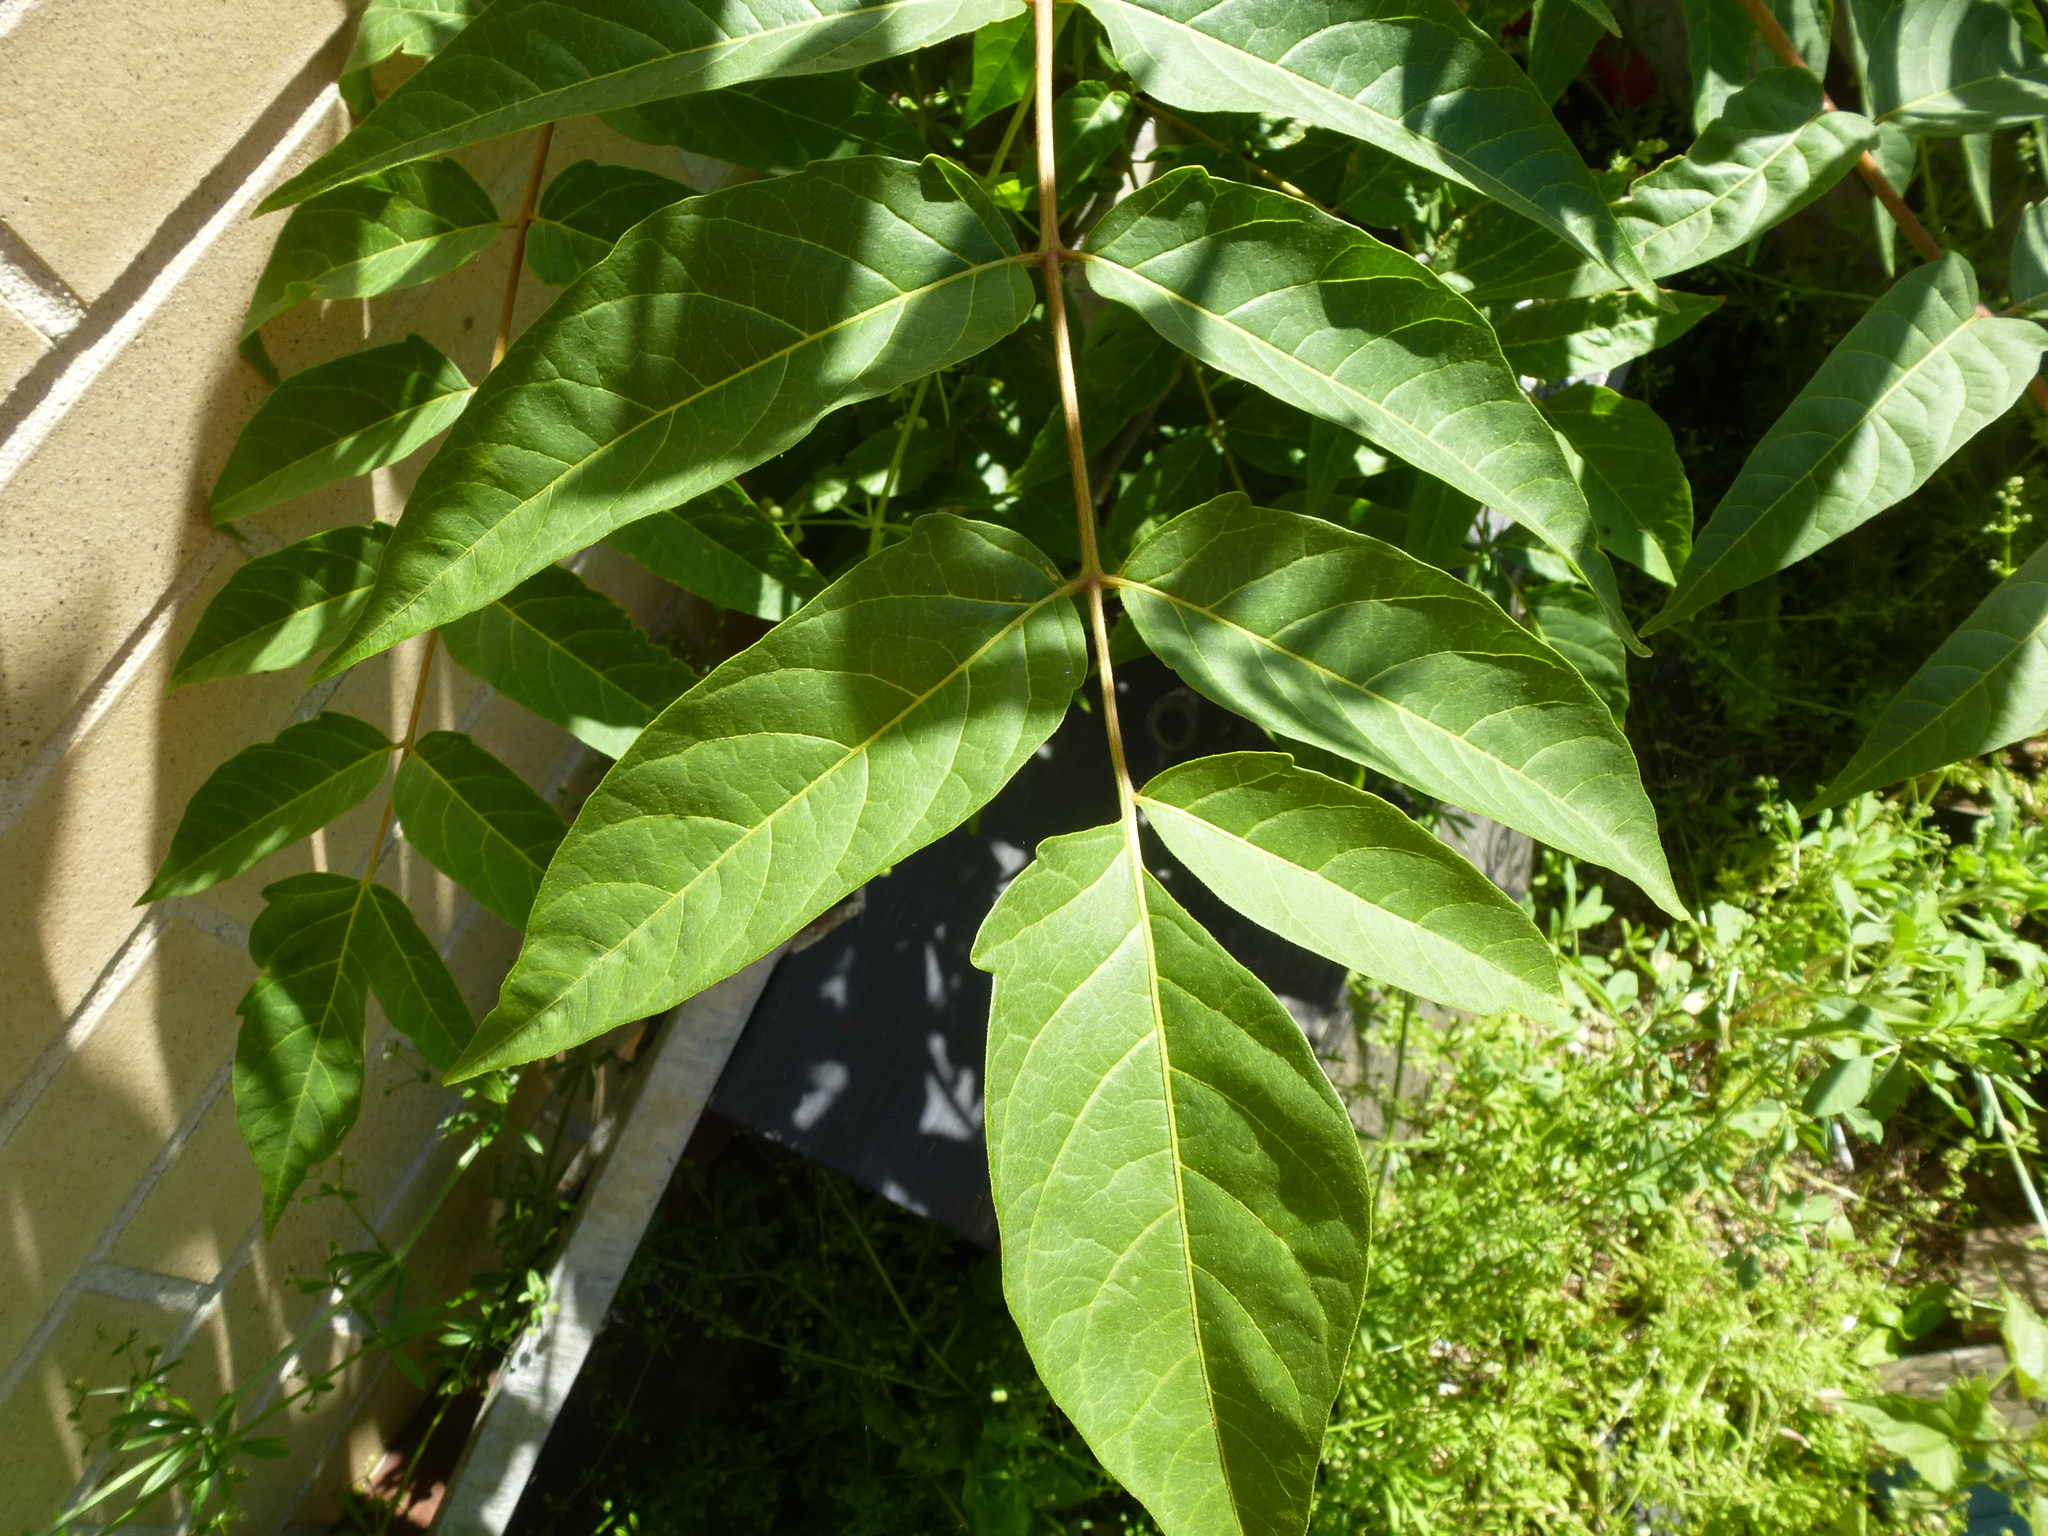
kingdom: Plantae
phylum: Tracheophyta
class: Magnoliopsida
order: Sapindales
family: Simaroubaceae
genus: Ailanthus
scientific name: Ailanthus altissima
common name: Tree-of-heaven
